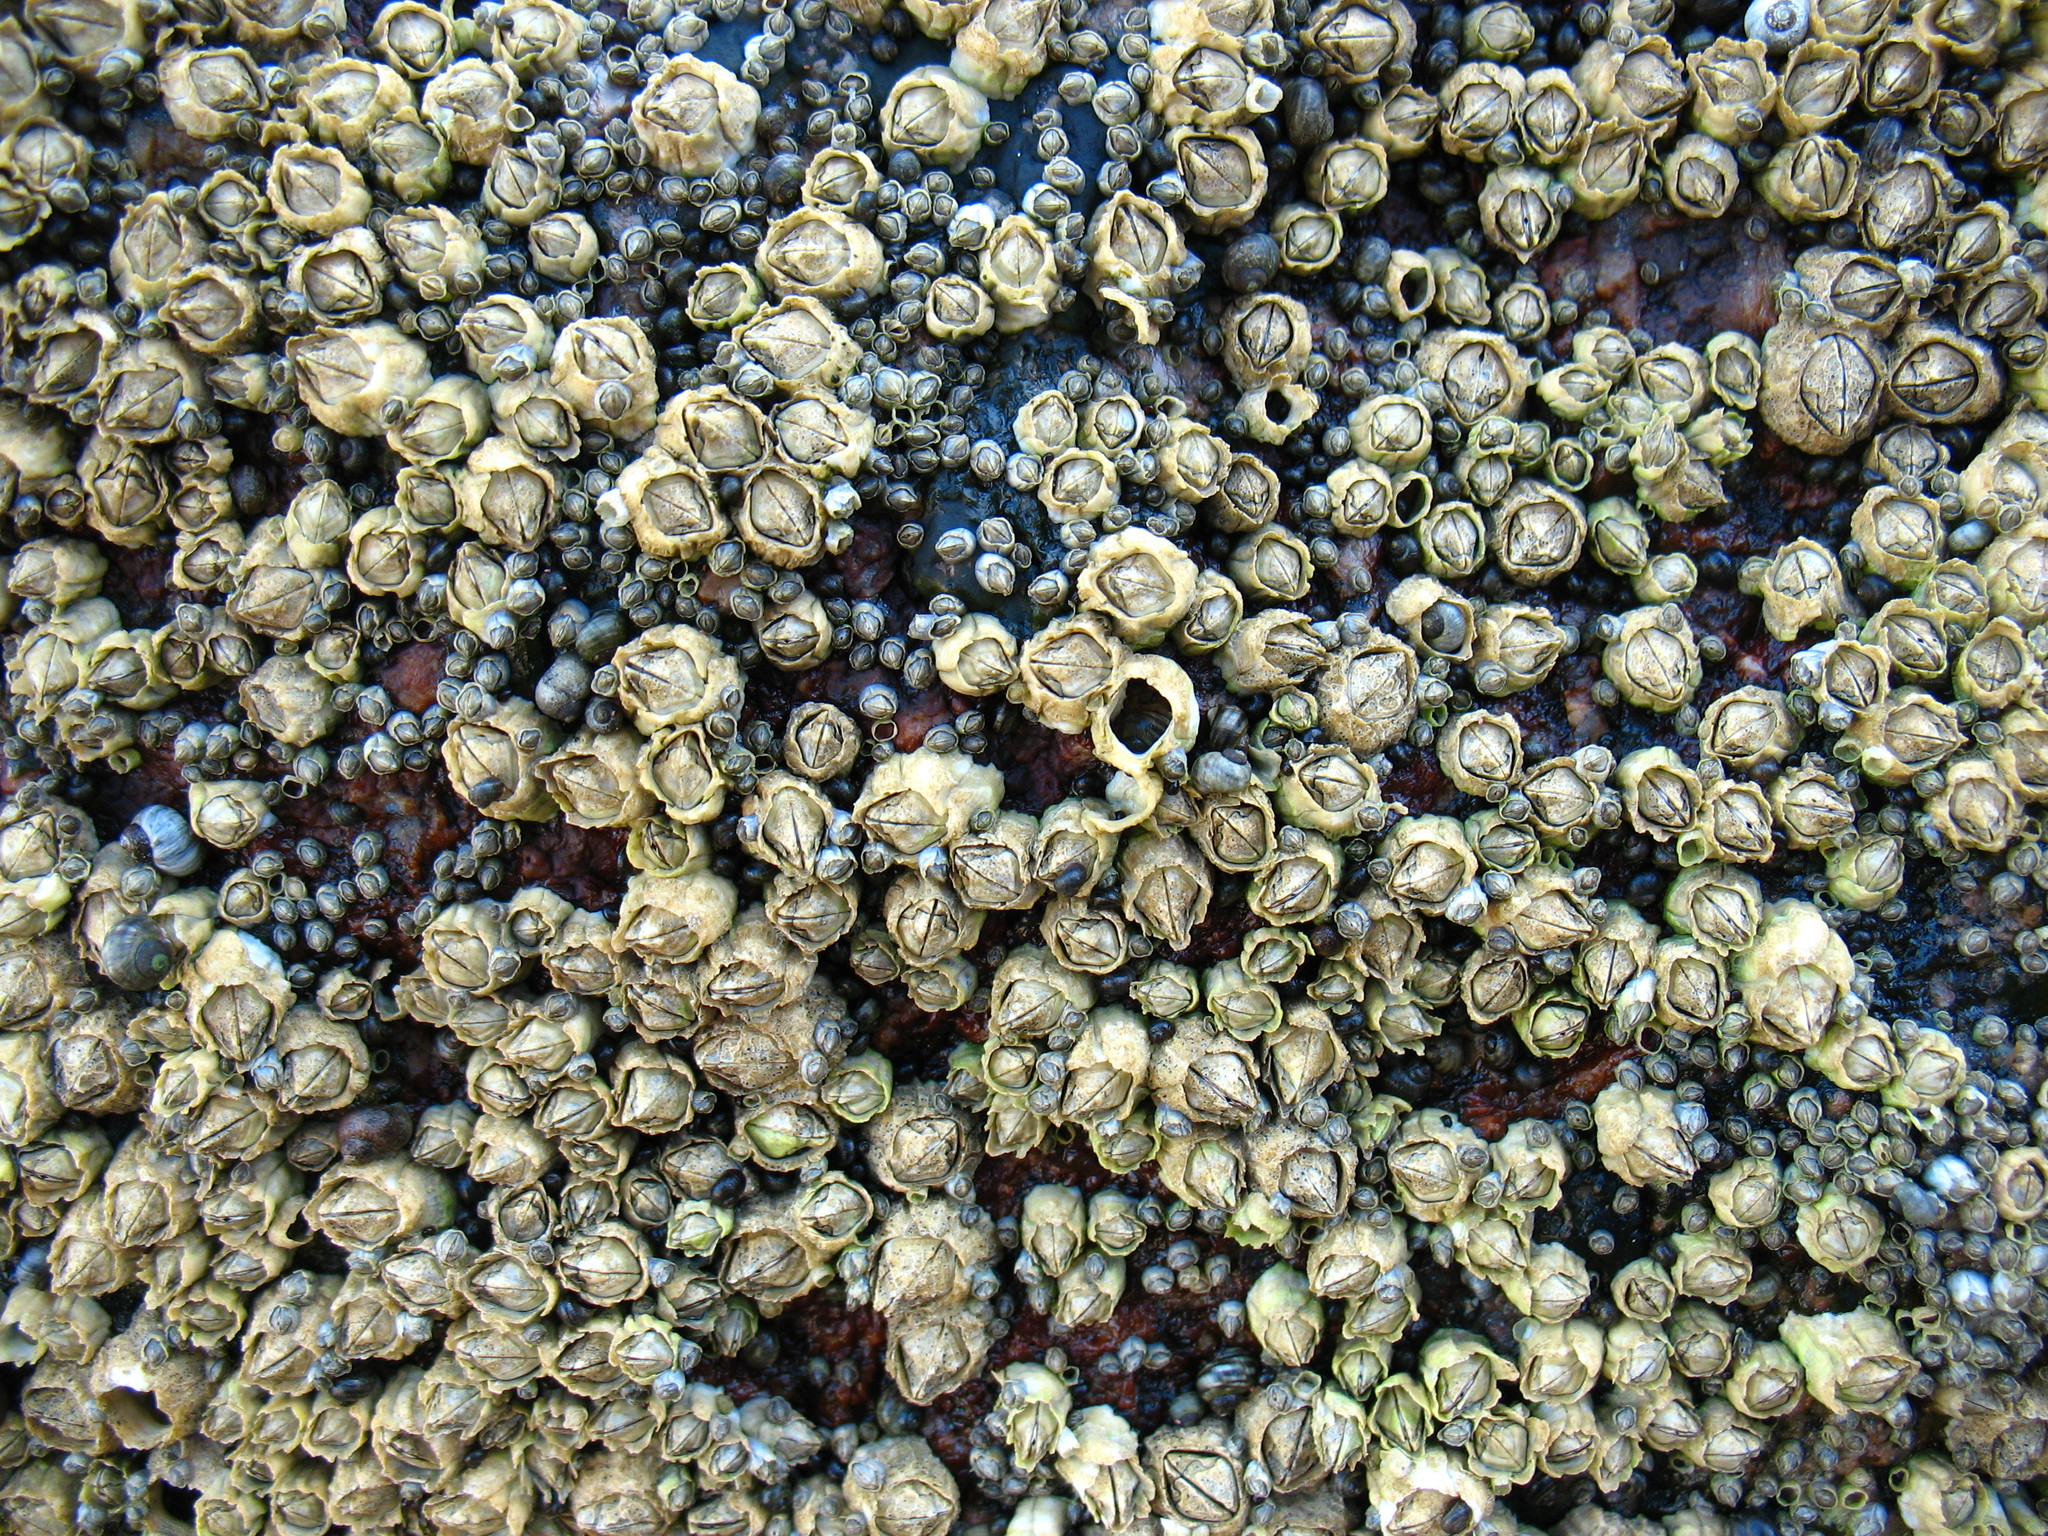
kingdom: Animalia
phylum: Arthropoda
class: Maxillopoda
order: Sessilia
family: Archaeobalanidae
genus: Semibalanus
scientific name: Semibalanus balanoides
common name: Acorn barnacle
